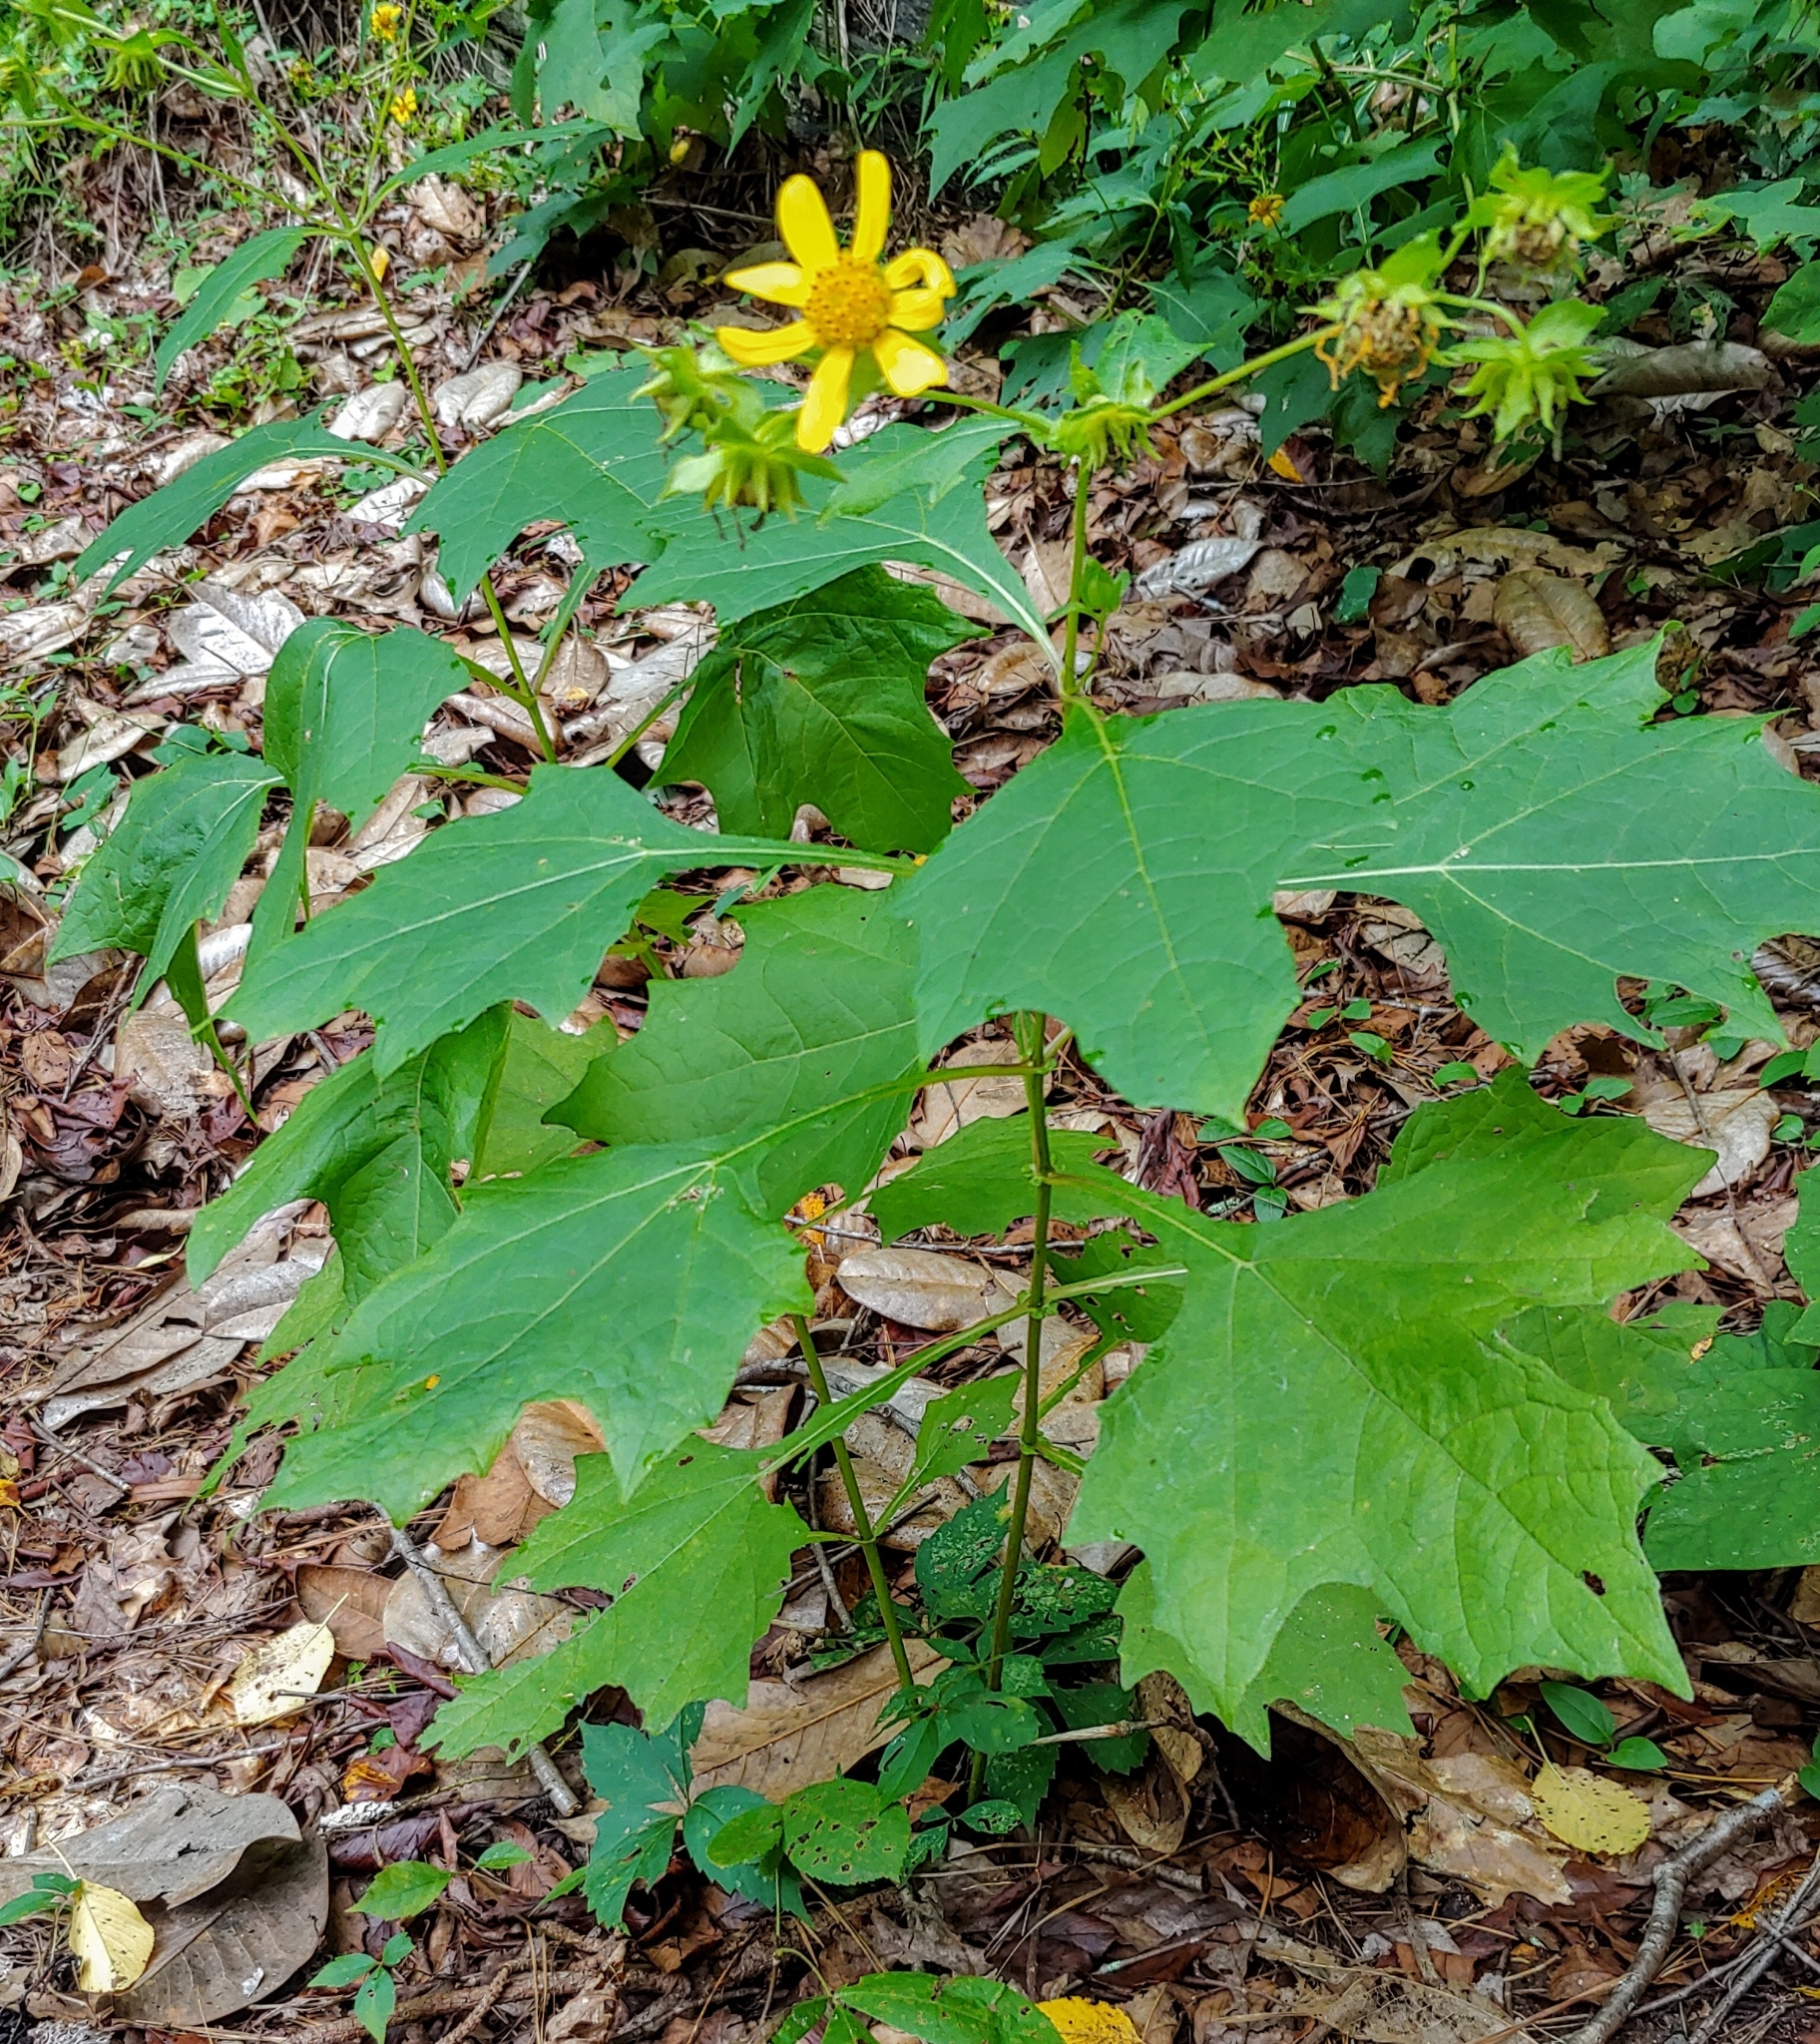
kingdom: Plantae
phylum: Tracheophyta
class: Magnoliopsida
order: Asterales
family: Asteraceae
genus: Smallanthus
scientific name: Smallanthus uvedalia
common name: Bear's-foot
